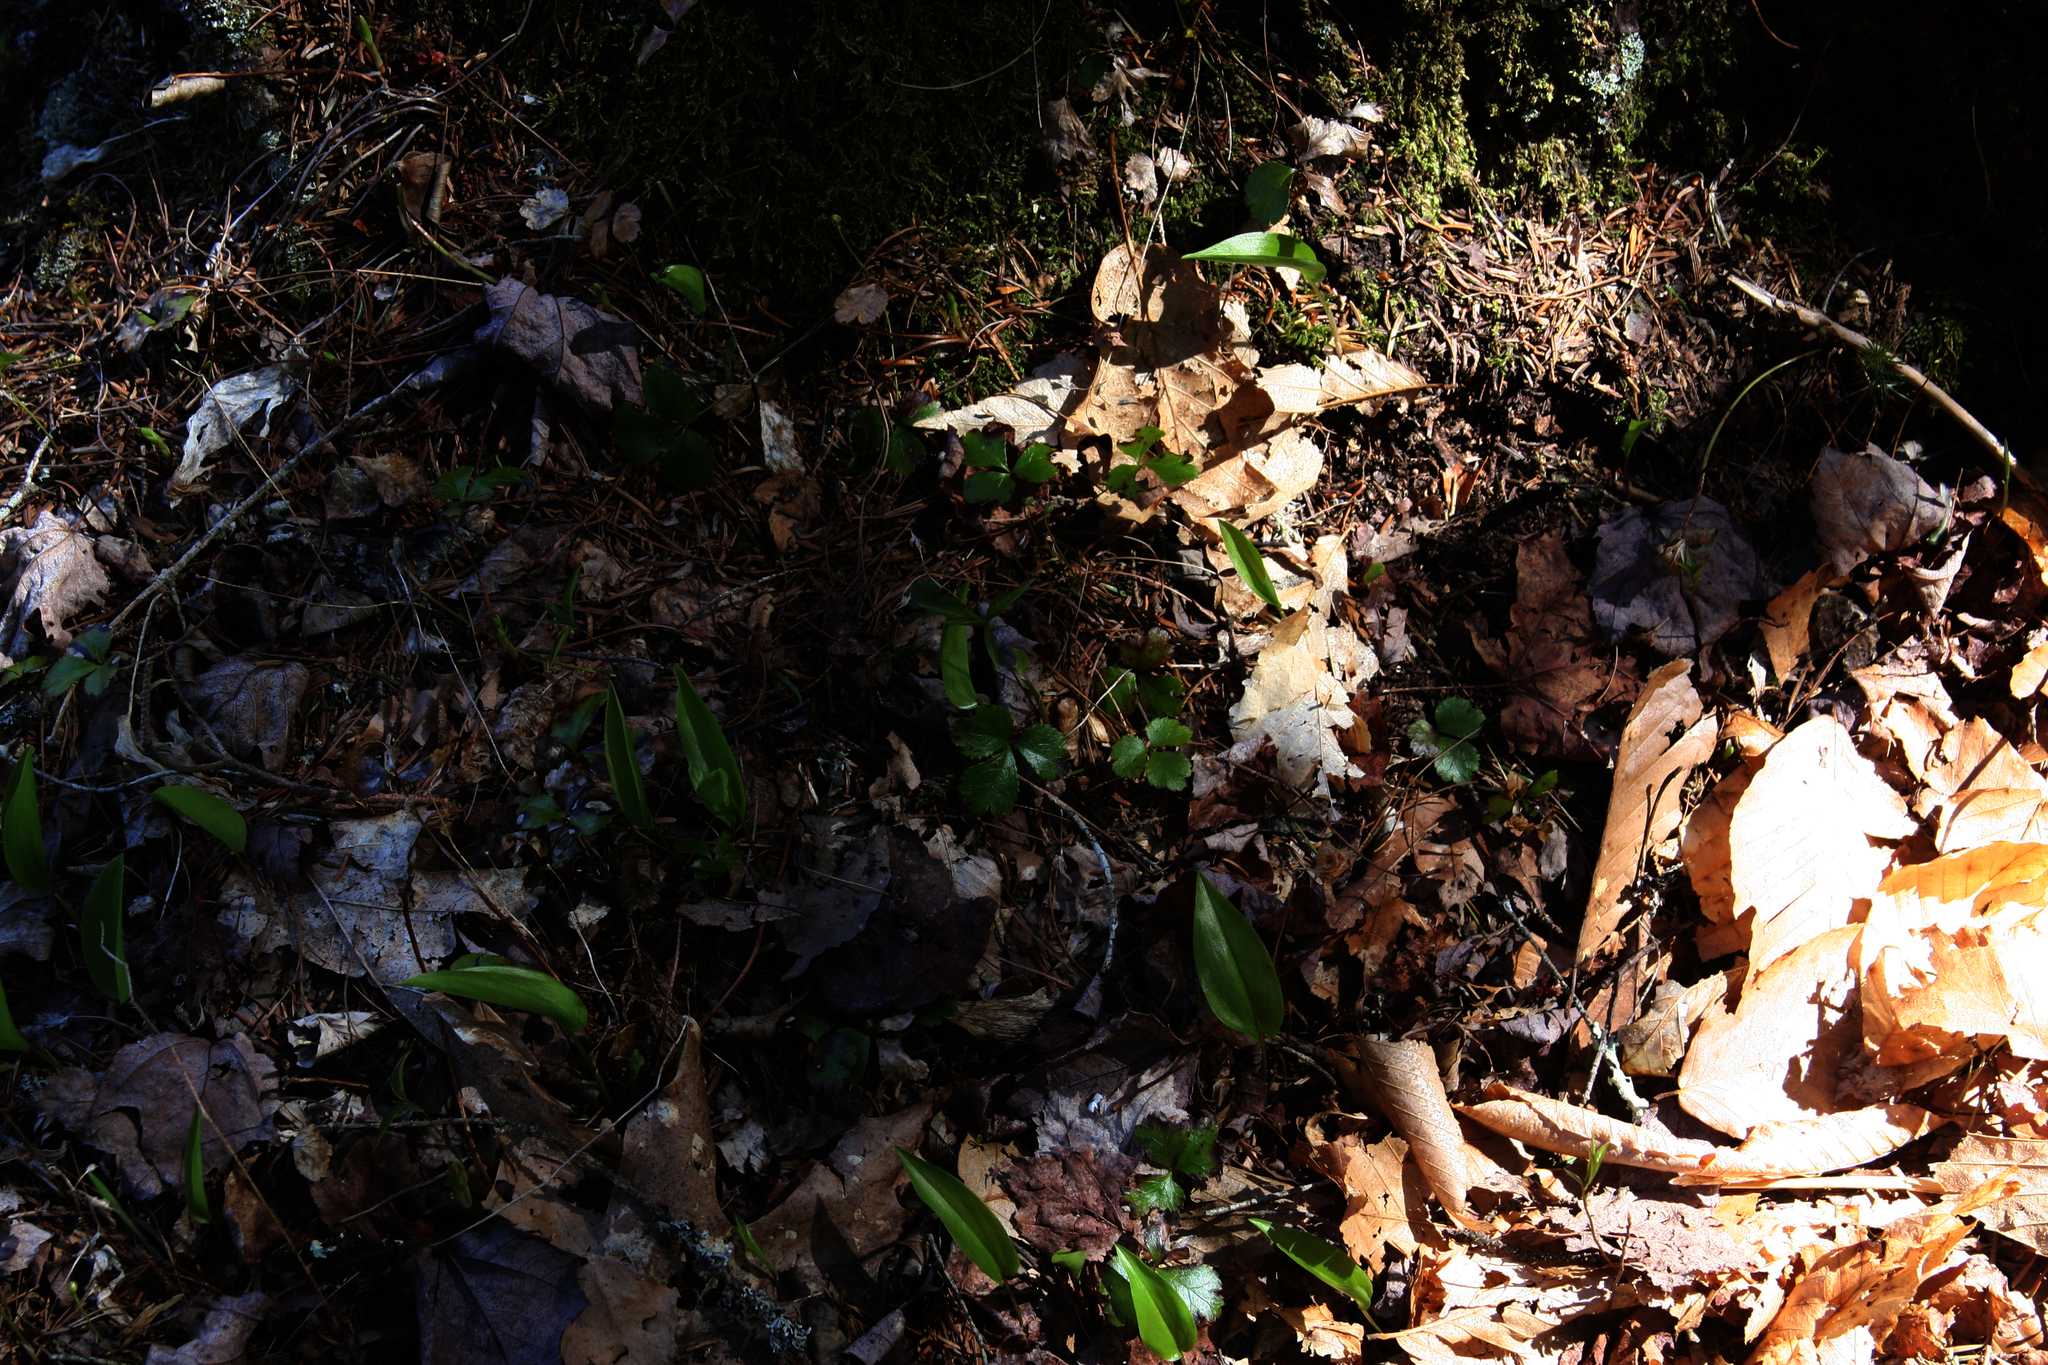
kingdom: Plantae
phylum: Tracheophyta
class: Magnoliopsida
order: Ranunculales
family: Ranunculaceae
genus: Coptis
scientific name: Coptis trifolia
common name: Canker-root
